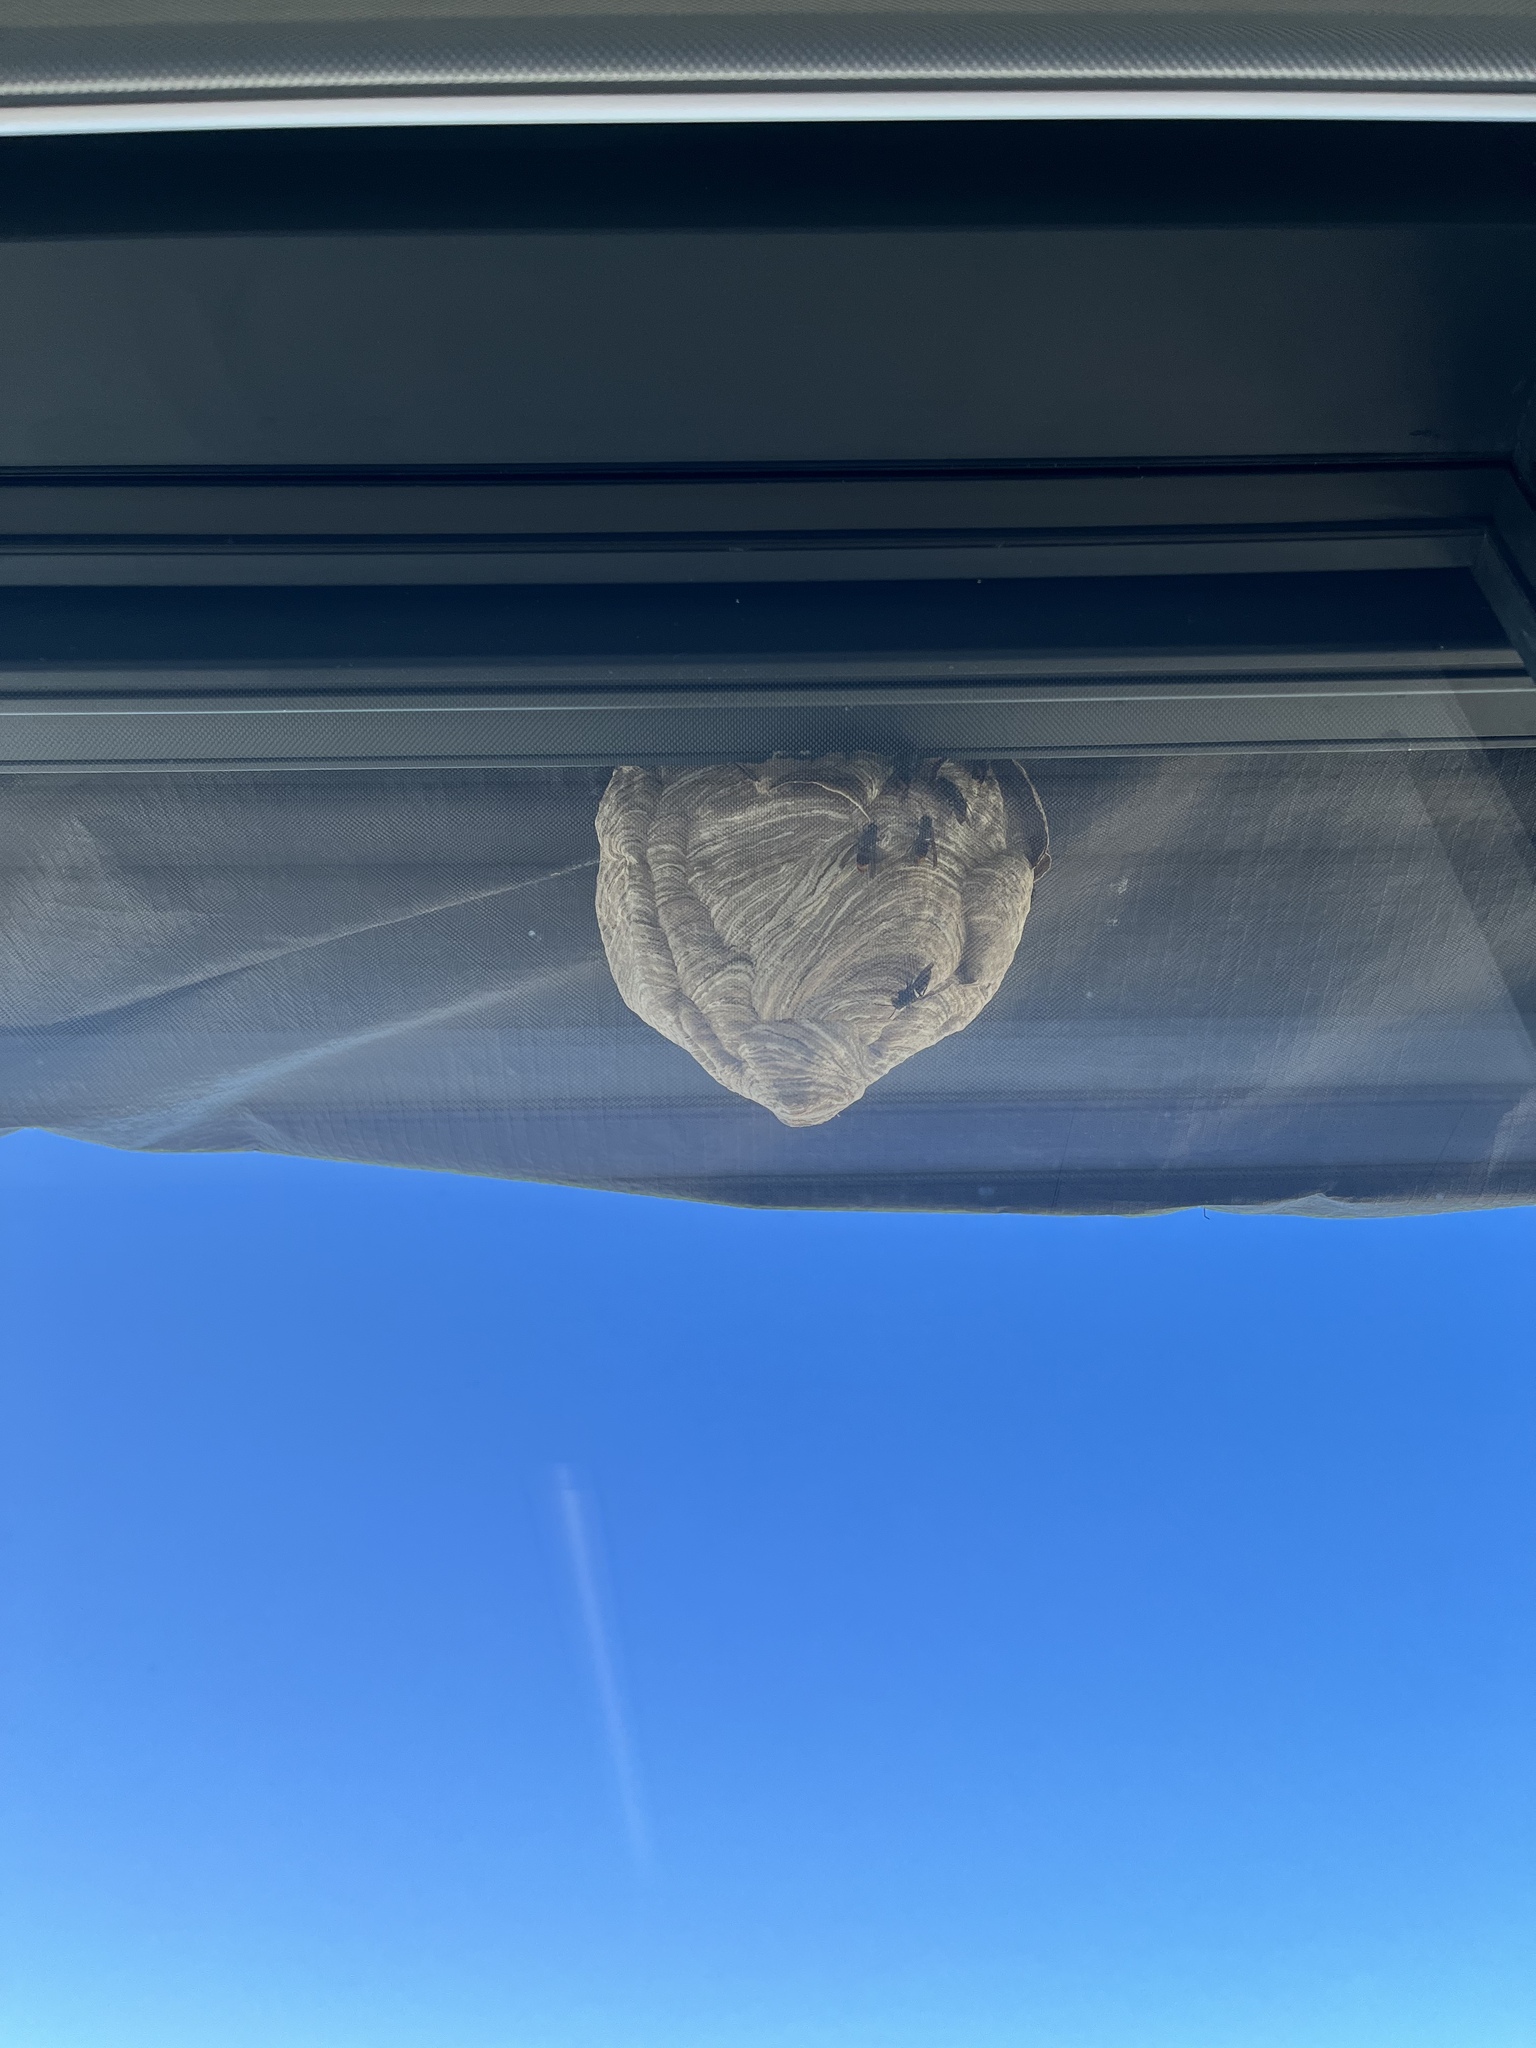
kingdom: Animalia
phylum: Arthropoda
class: Insecta
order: Hymenoptera
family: Vespidae
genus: Vespa
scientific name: Vespa velutina
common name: Asian hornet
